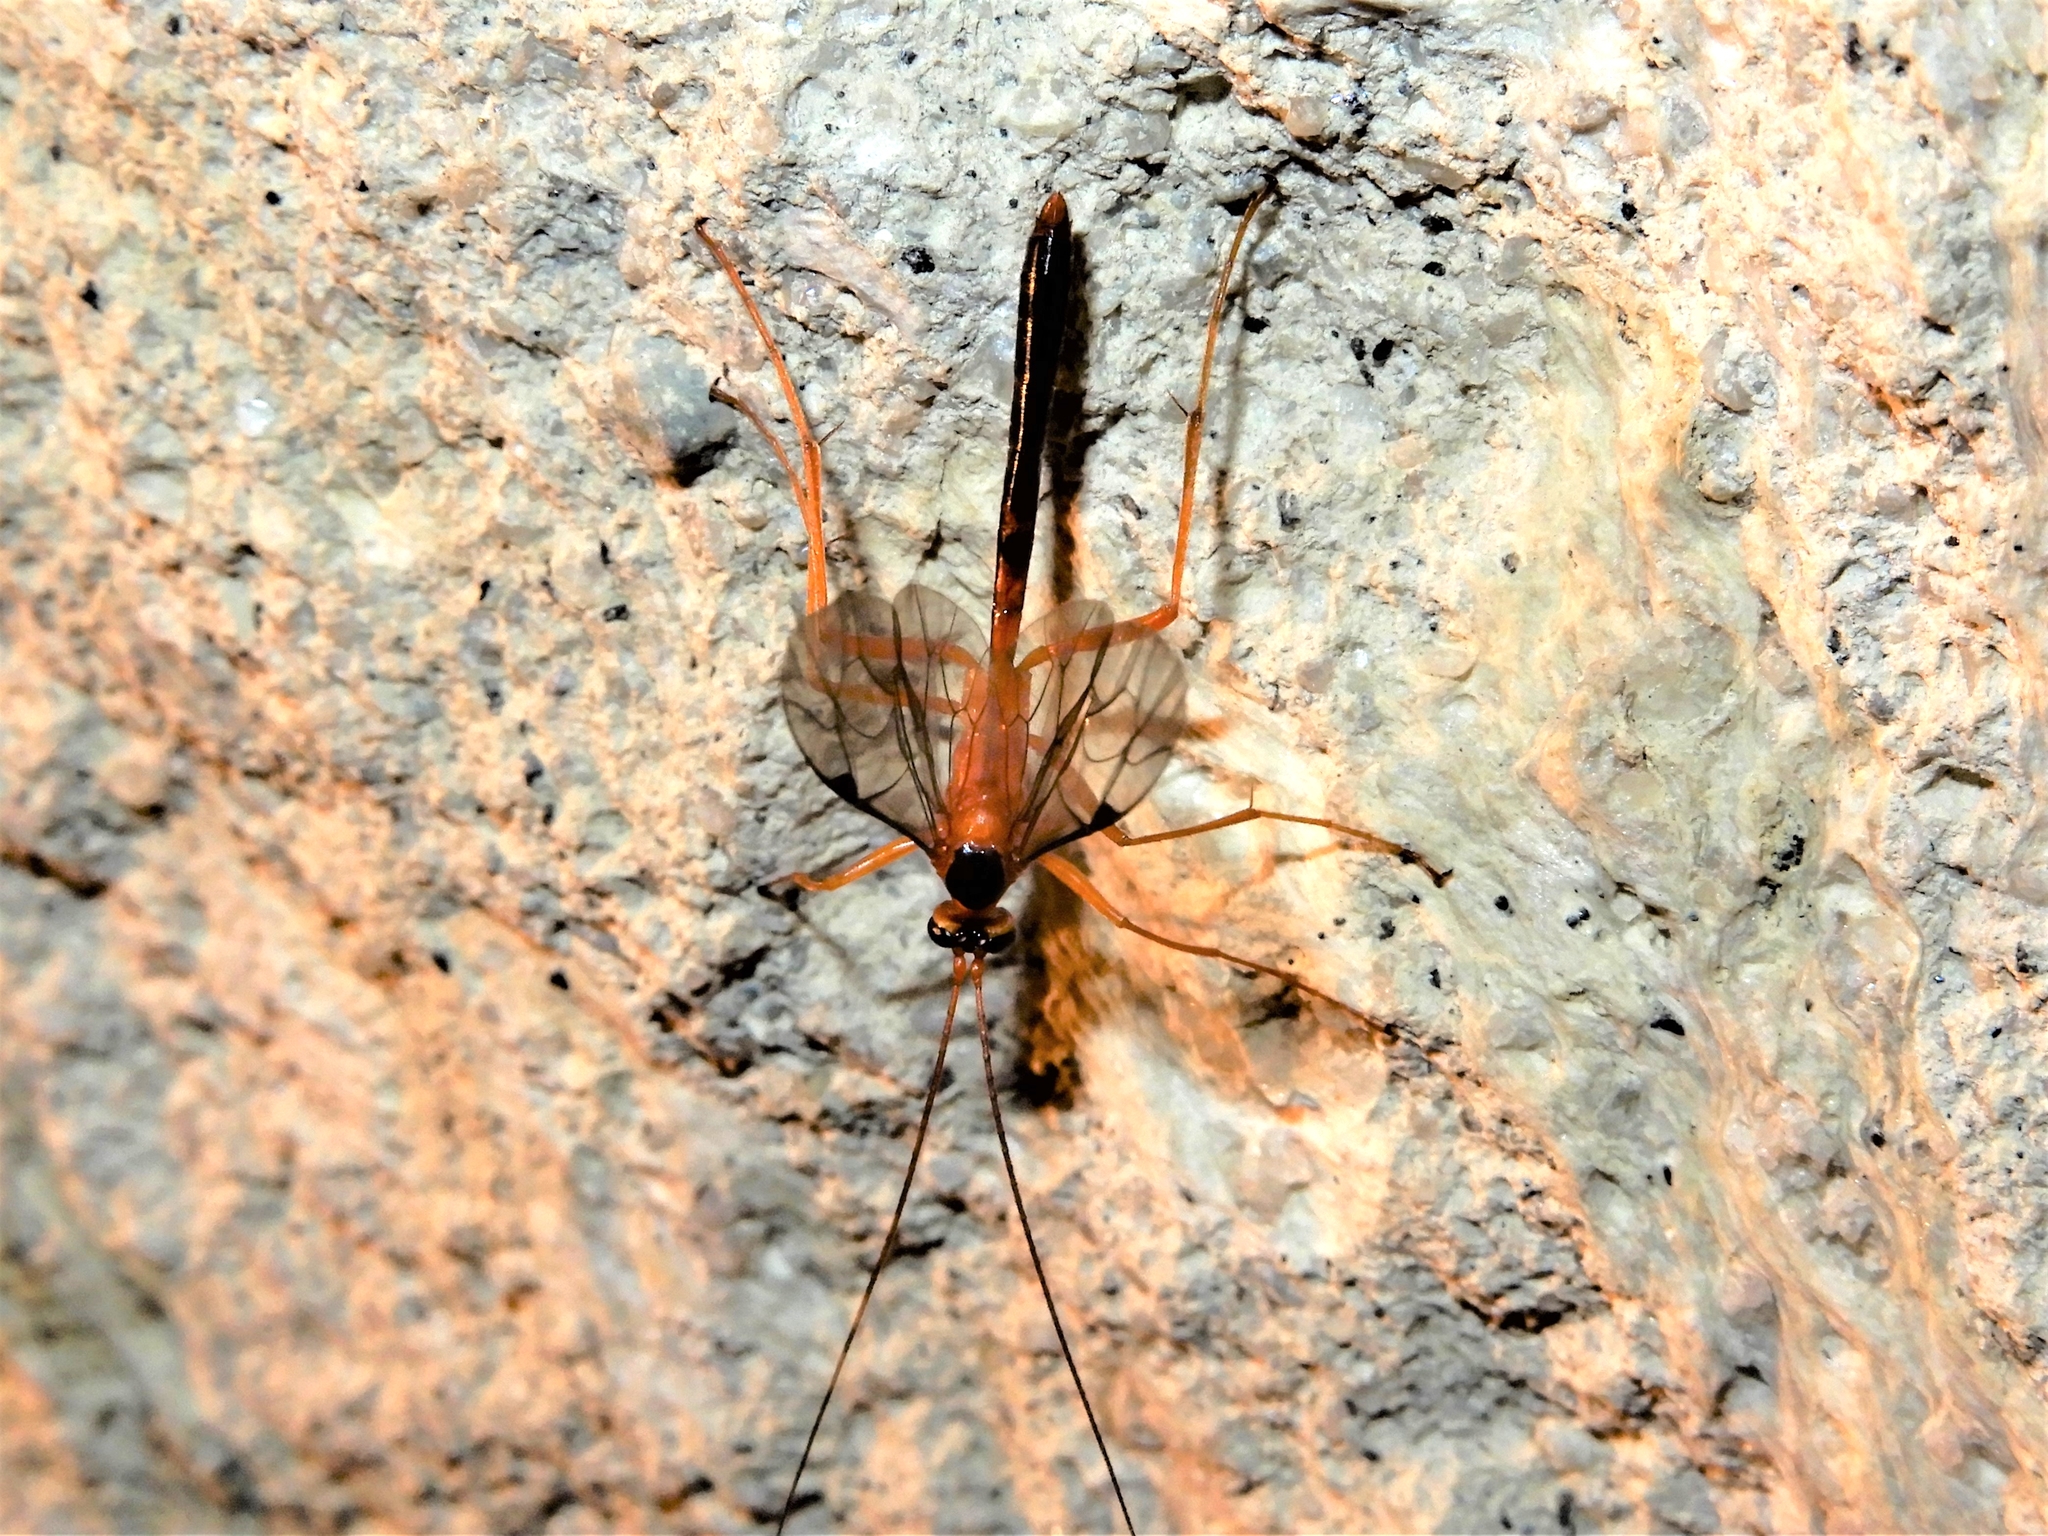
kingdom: Animalia
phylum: Arthropoda
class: Insecta
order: Hymenoptera
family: Ichneumonidae
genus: Netelia
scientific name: Netelia ephippiata
